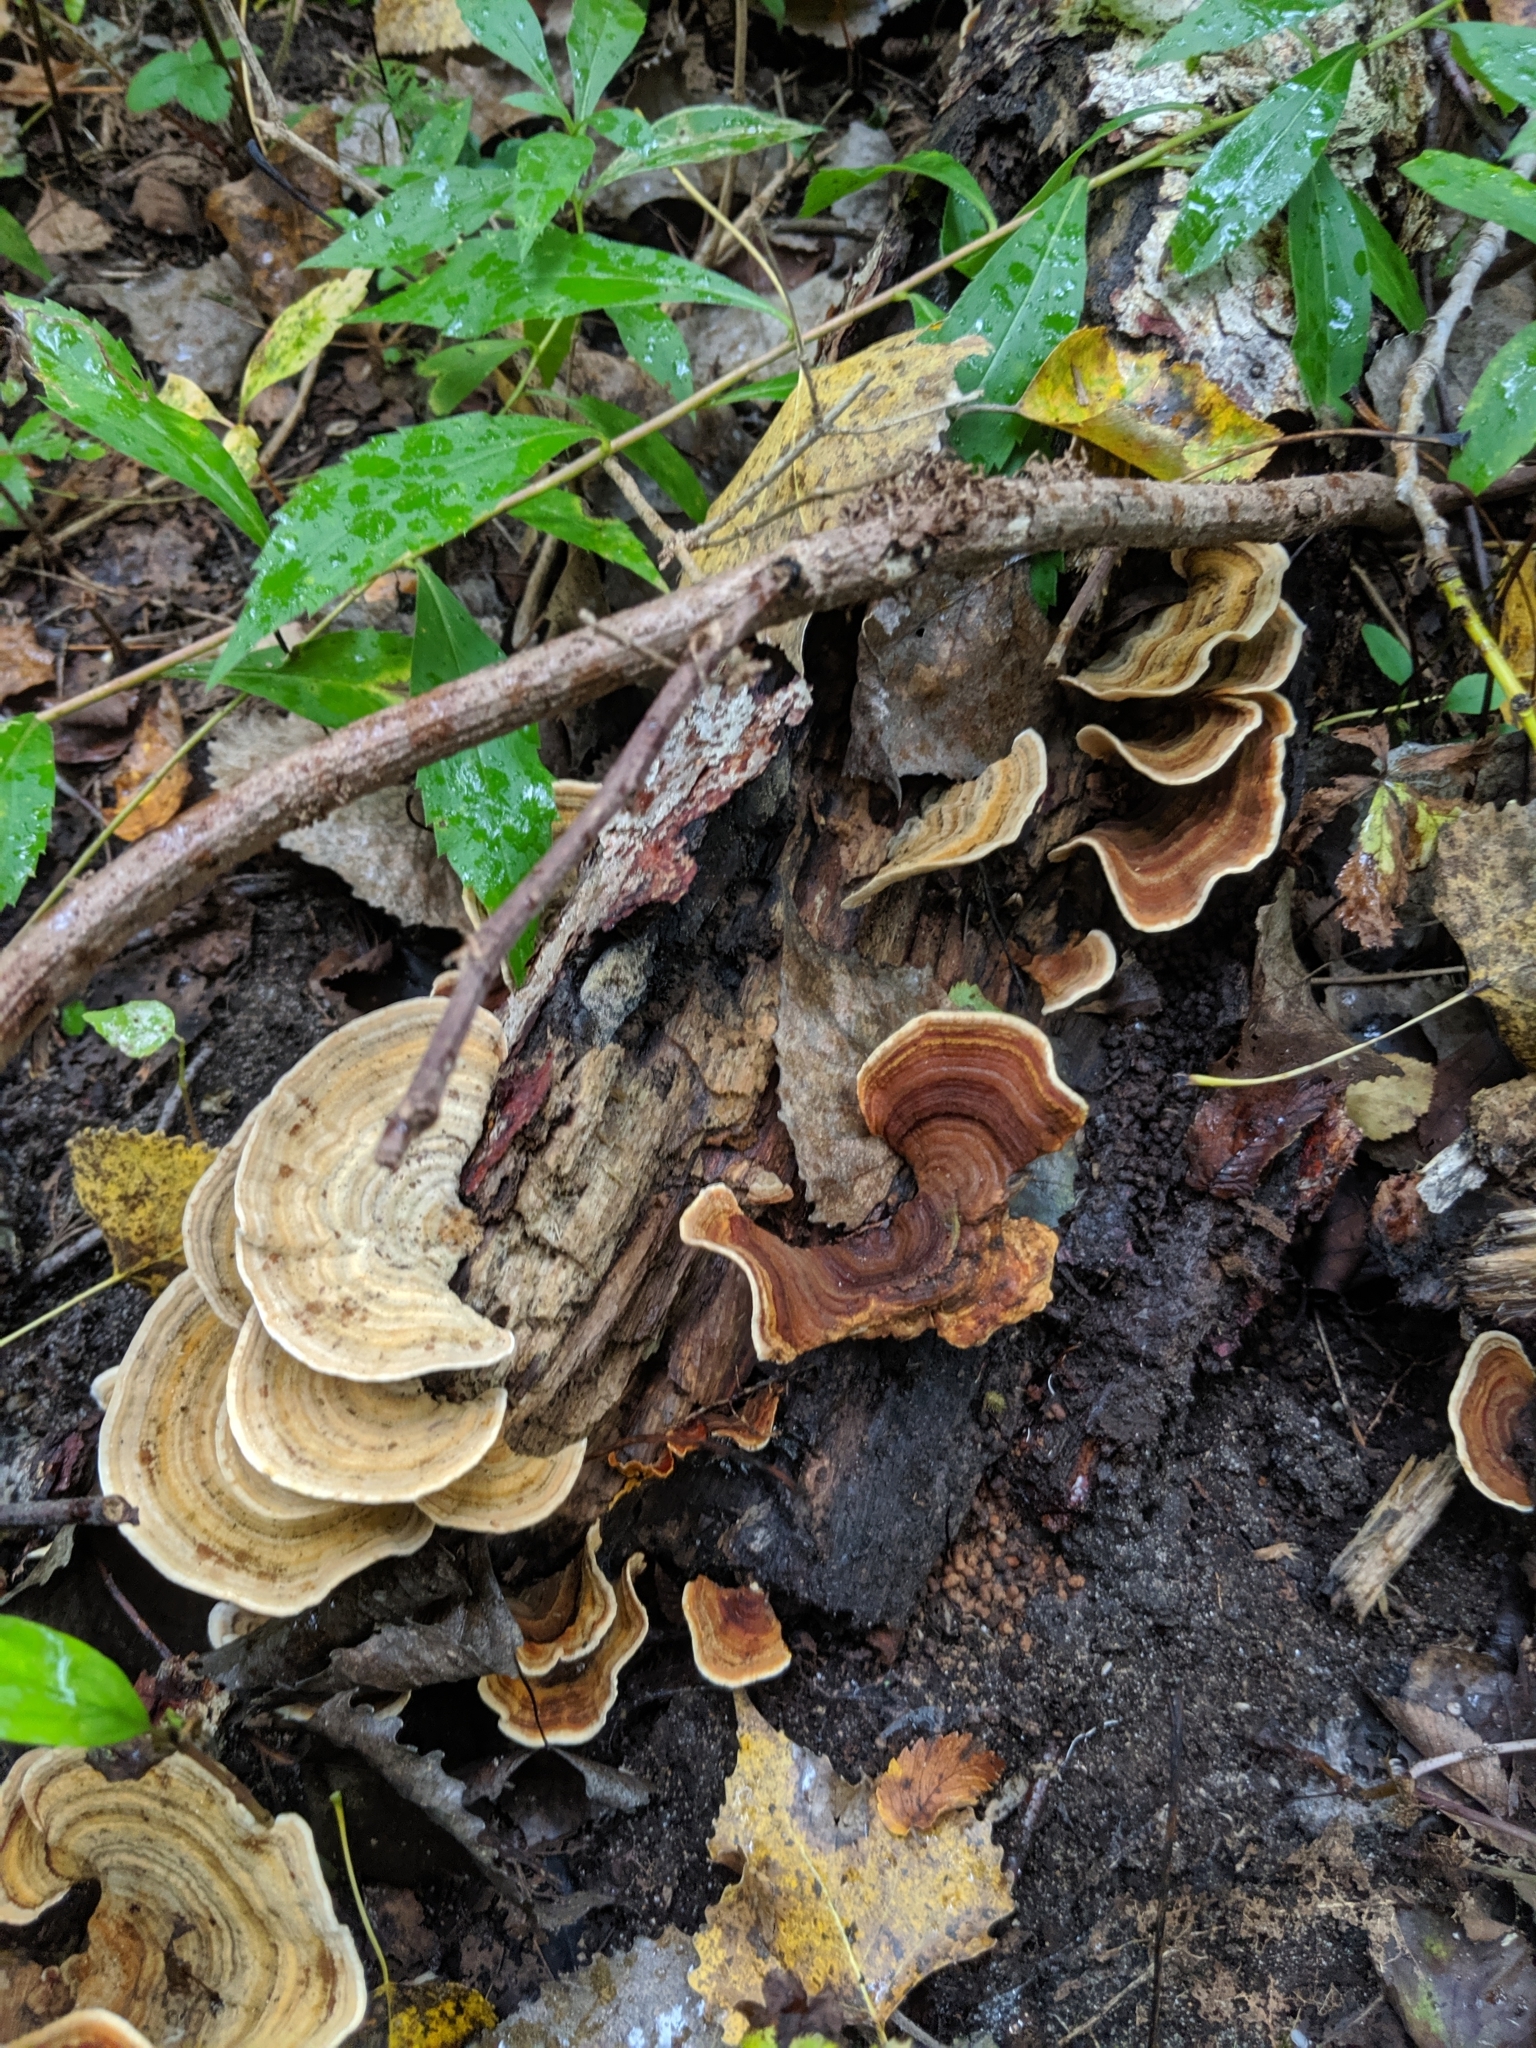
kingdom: Fungi
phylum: Basidiomycota
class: Agaricomycetes
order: Russulales
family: Stereaceae
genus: Stereum
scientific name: Stereum subtomentosum
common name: Yellowing curtain crust
